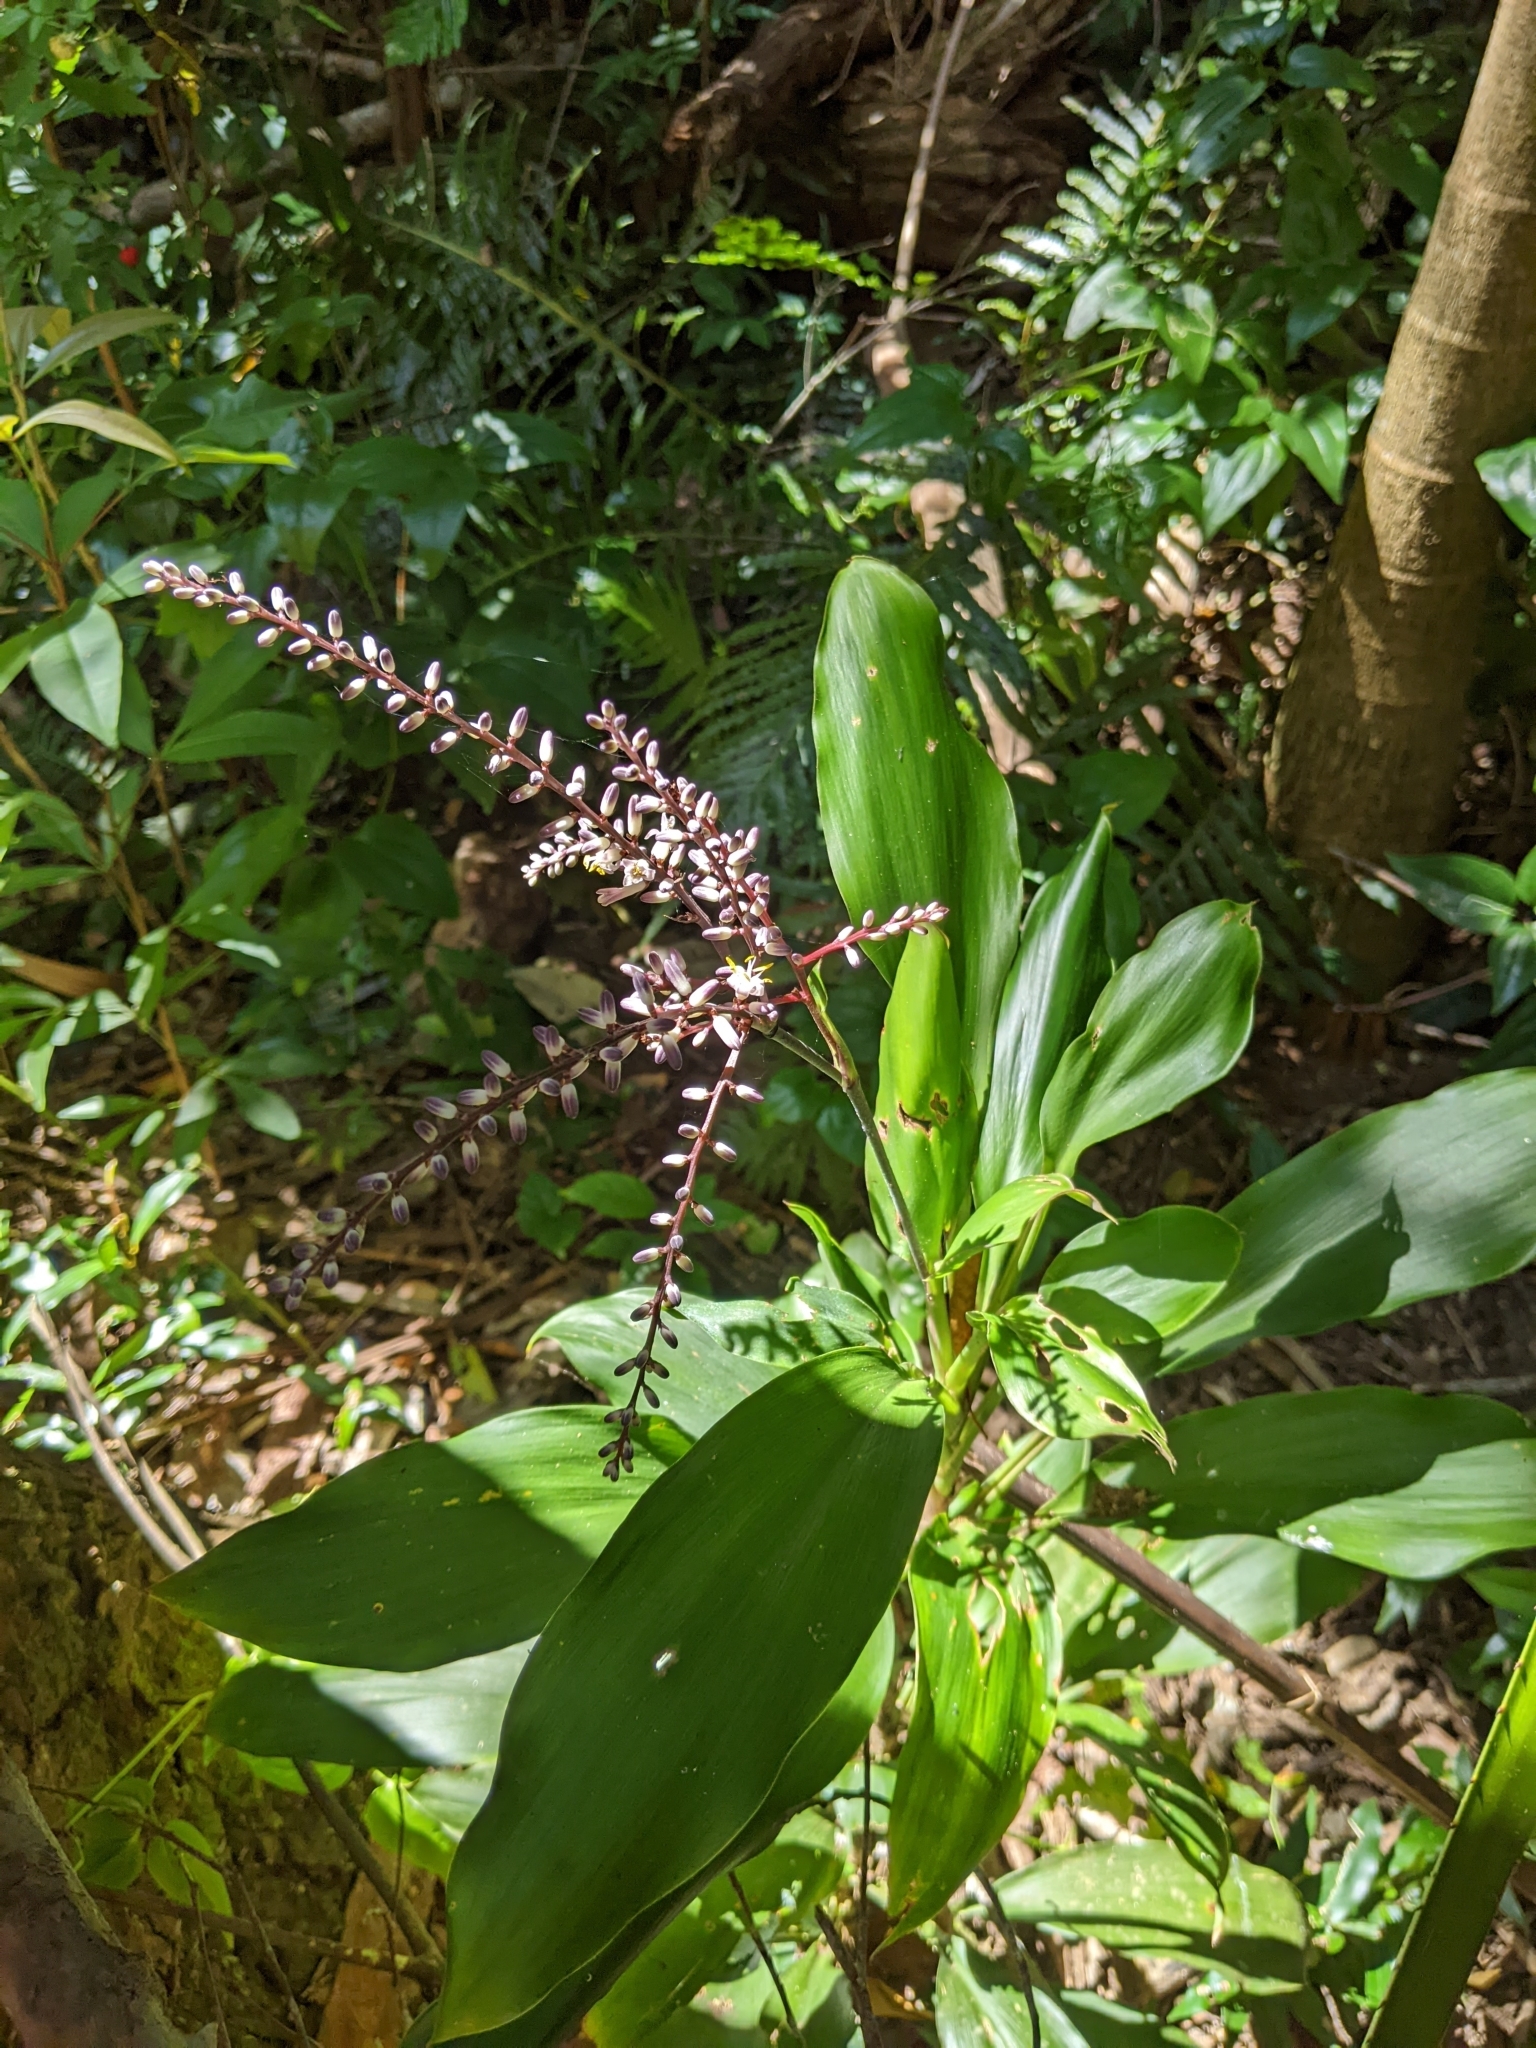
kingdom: Plantae
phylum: Tracheophyta
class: Liliopsida
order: Asparagales
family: Asparagaceae
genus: Cordyline
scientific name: Cordyline murchisoniae
